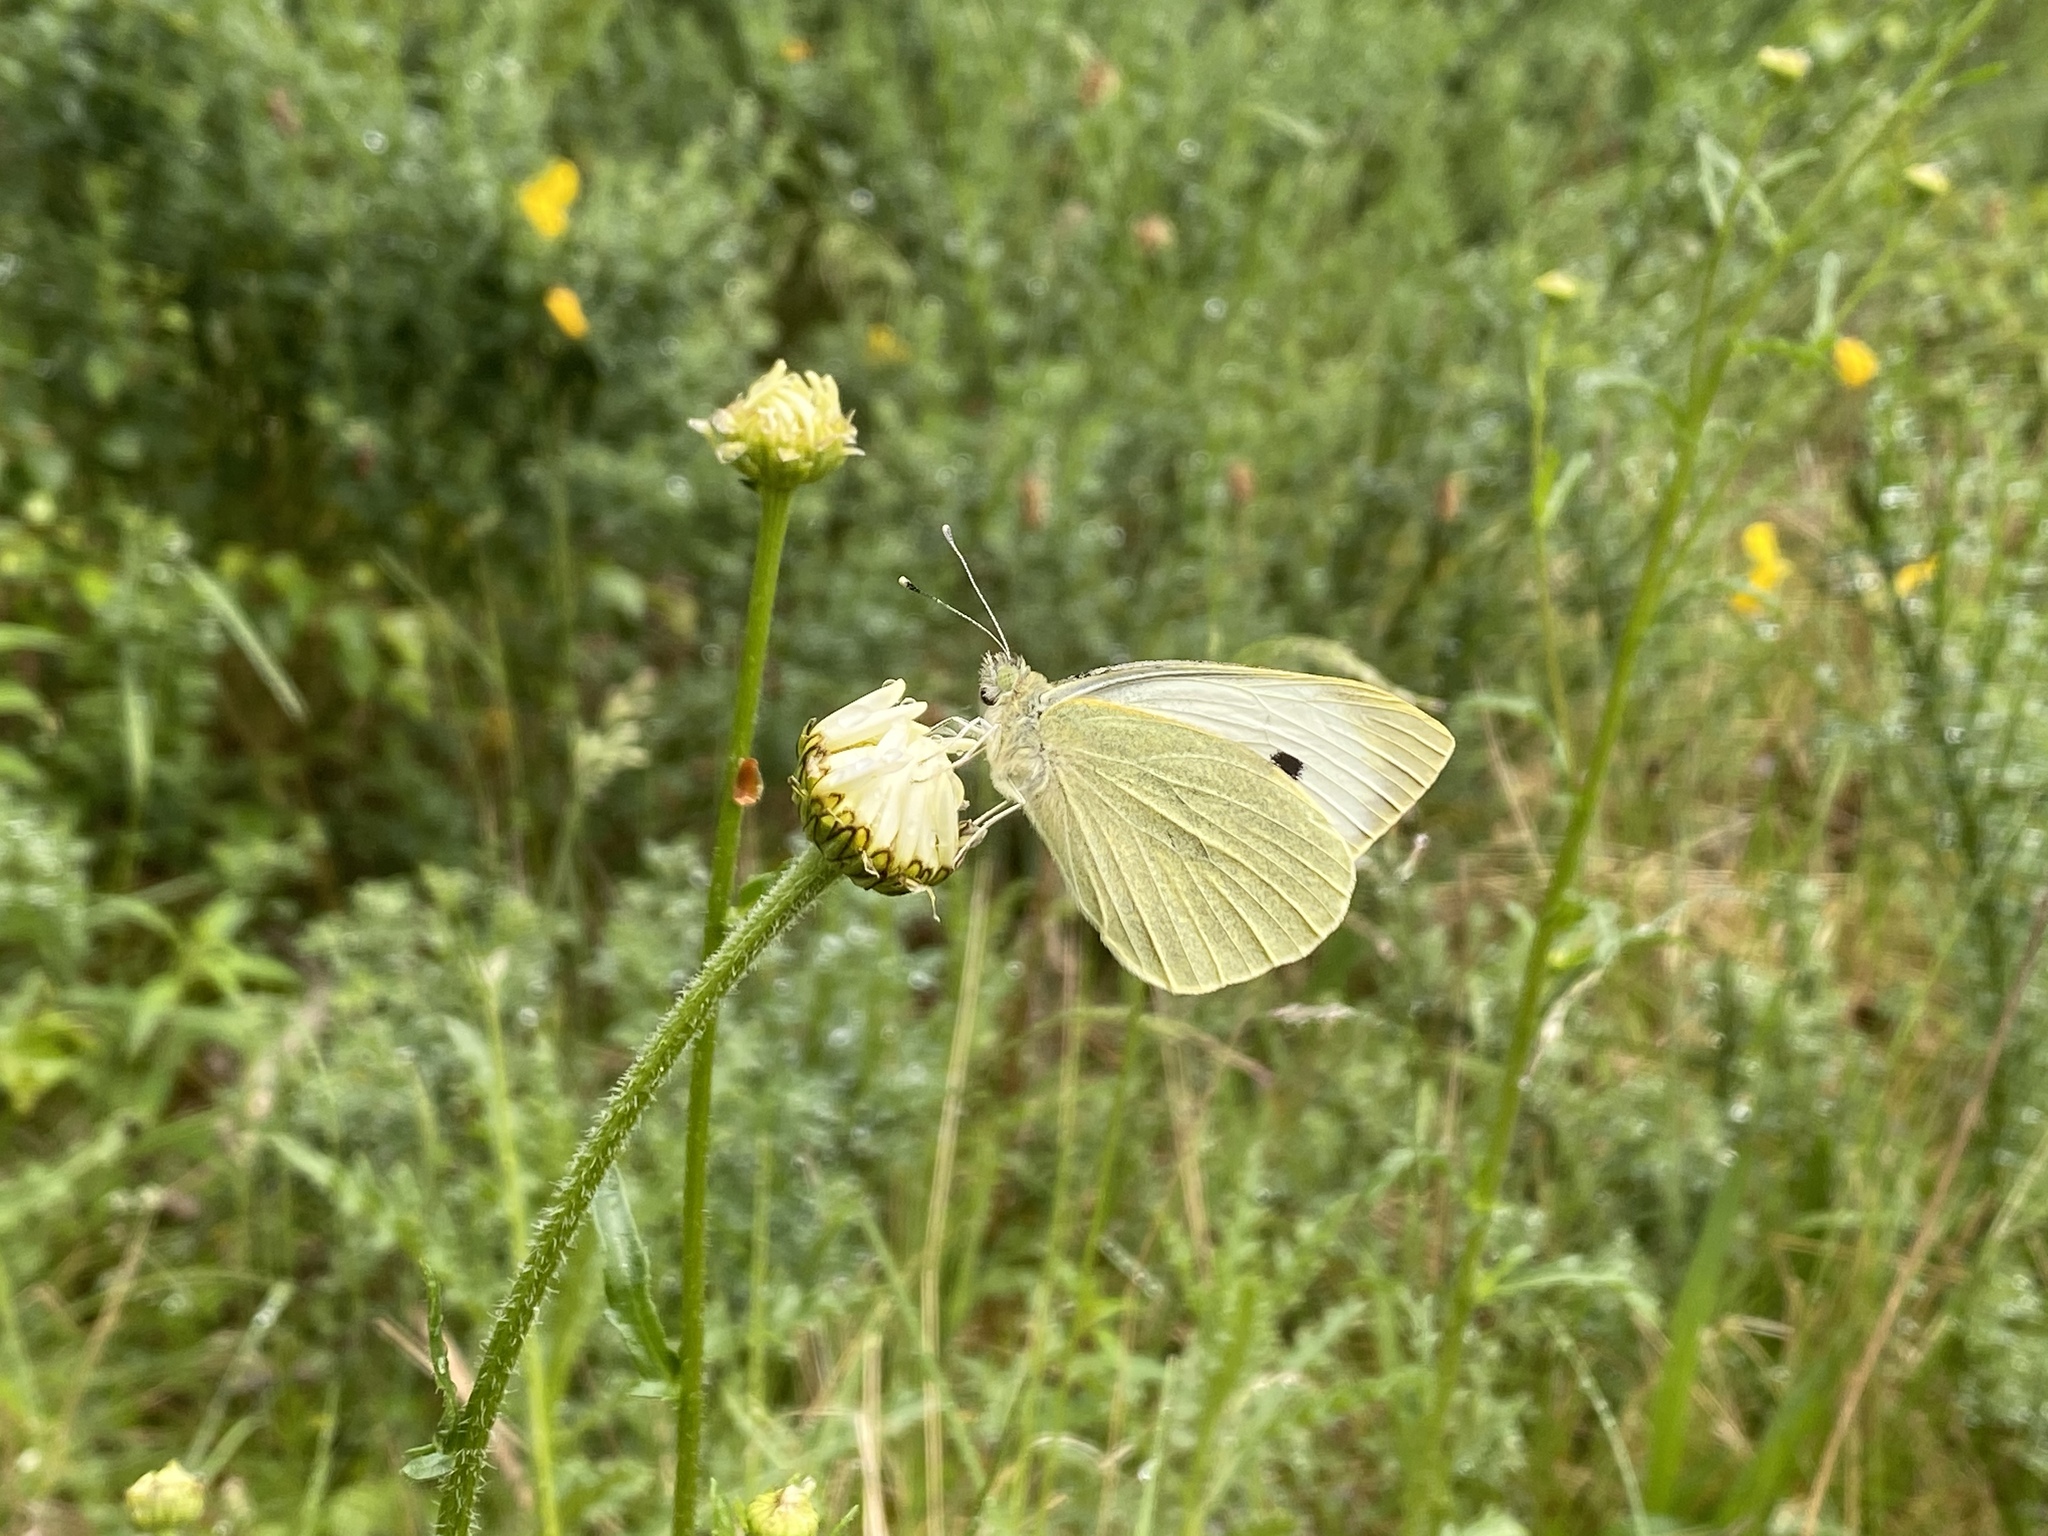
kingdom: Animalia
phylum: Arthropoda
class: Insecta
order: Lepidoptera
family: Pieridae
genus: Pieris
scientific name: Pieris brassicae
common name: Large white
